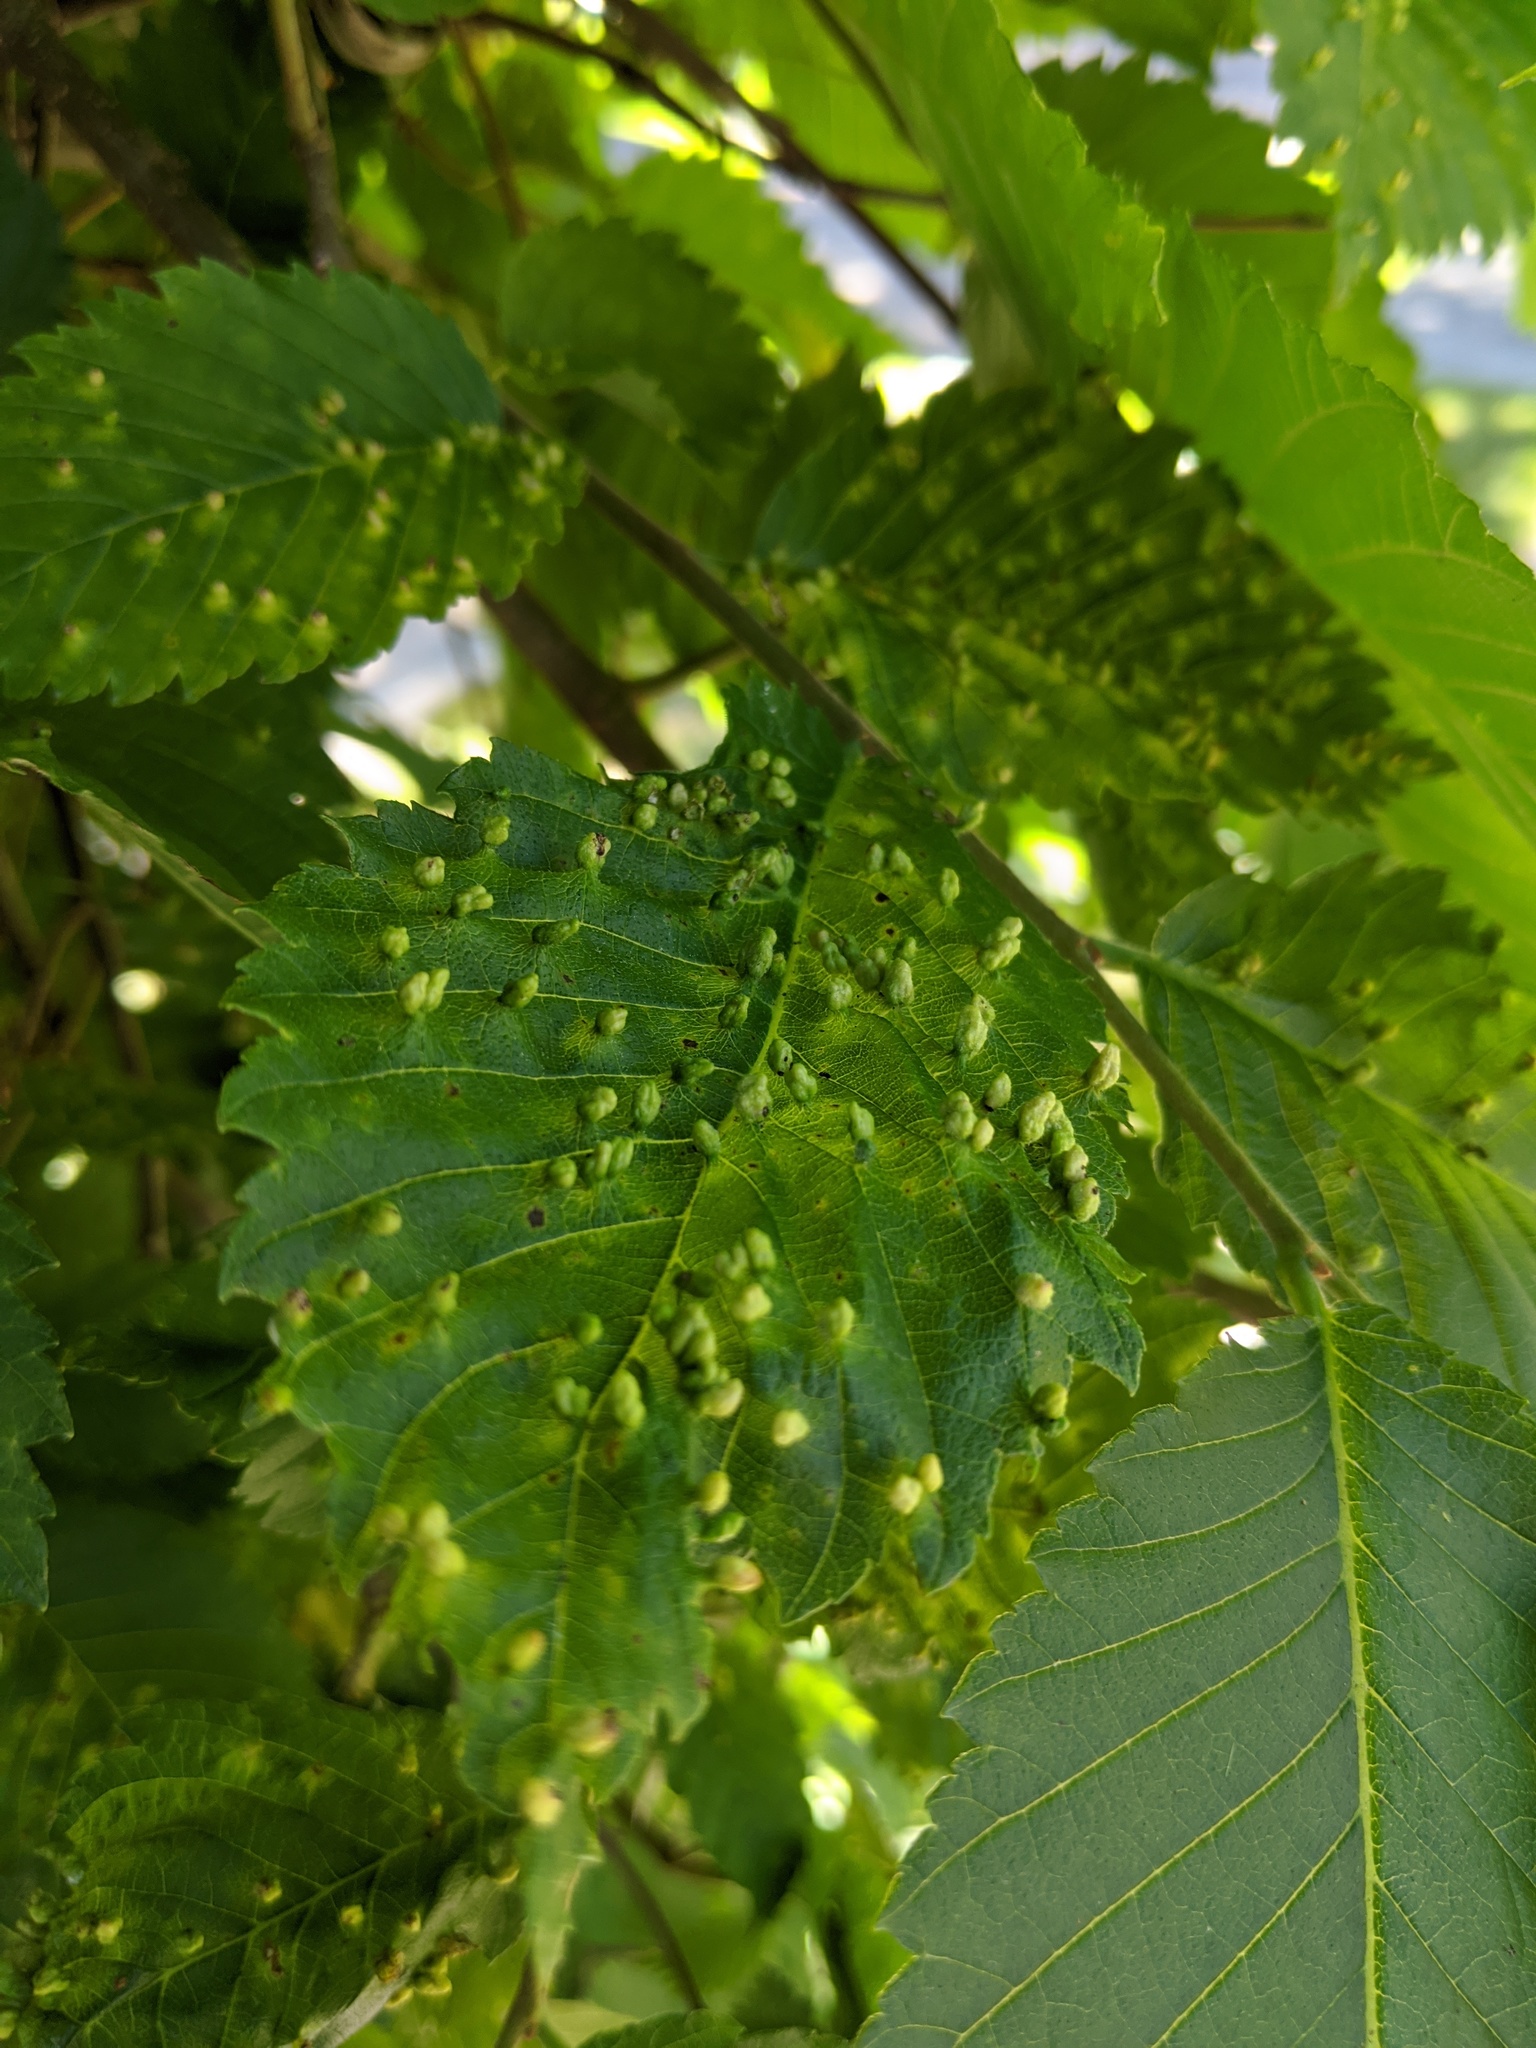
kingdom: Animalia
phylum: Arthropoda
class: Arachnida
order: Trombidiformes
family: Eriophyidae
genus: Aceria
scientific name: Aceria
